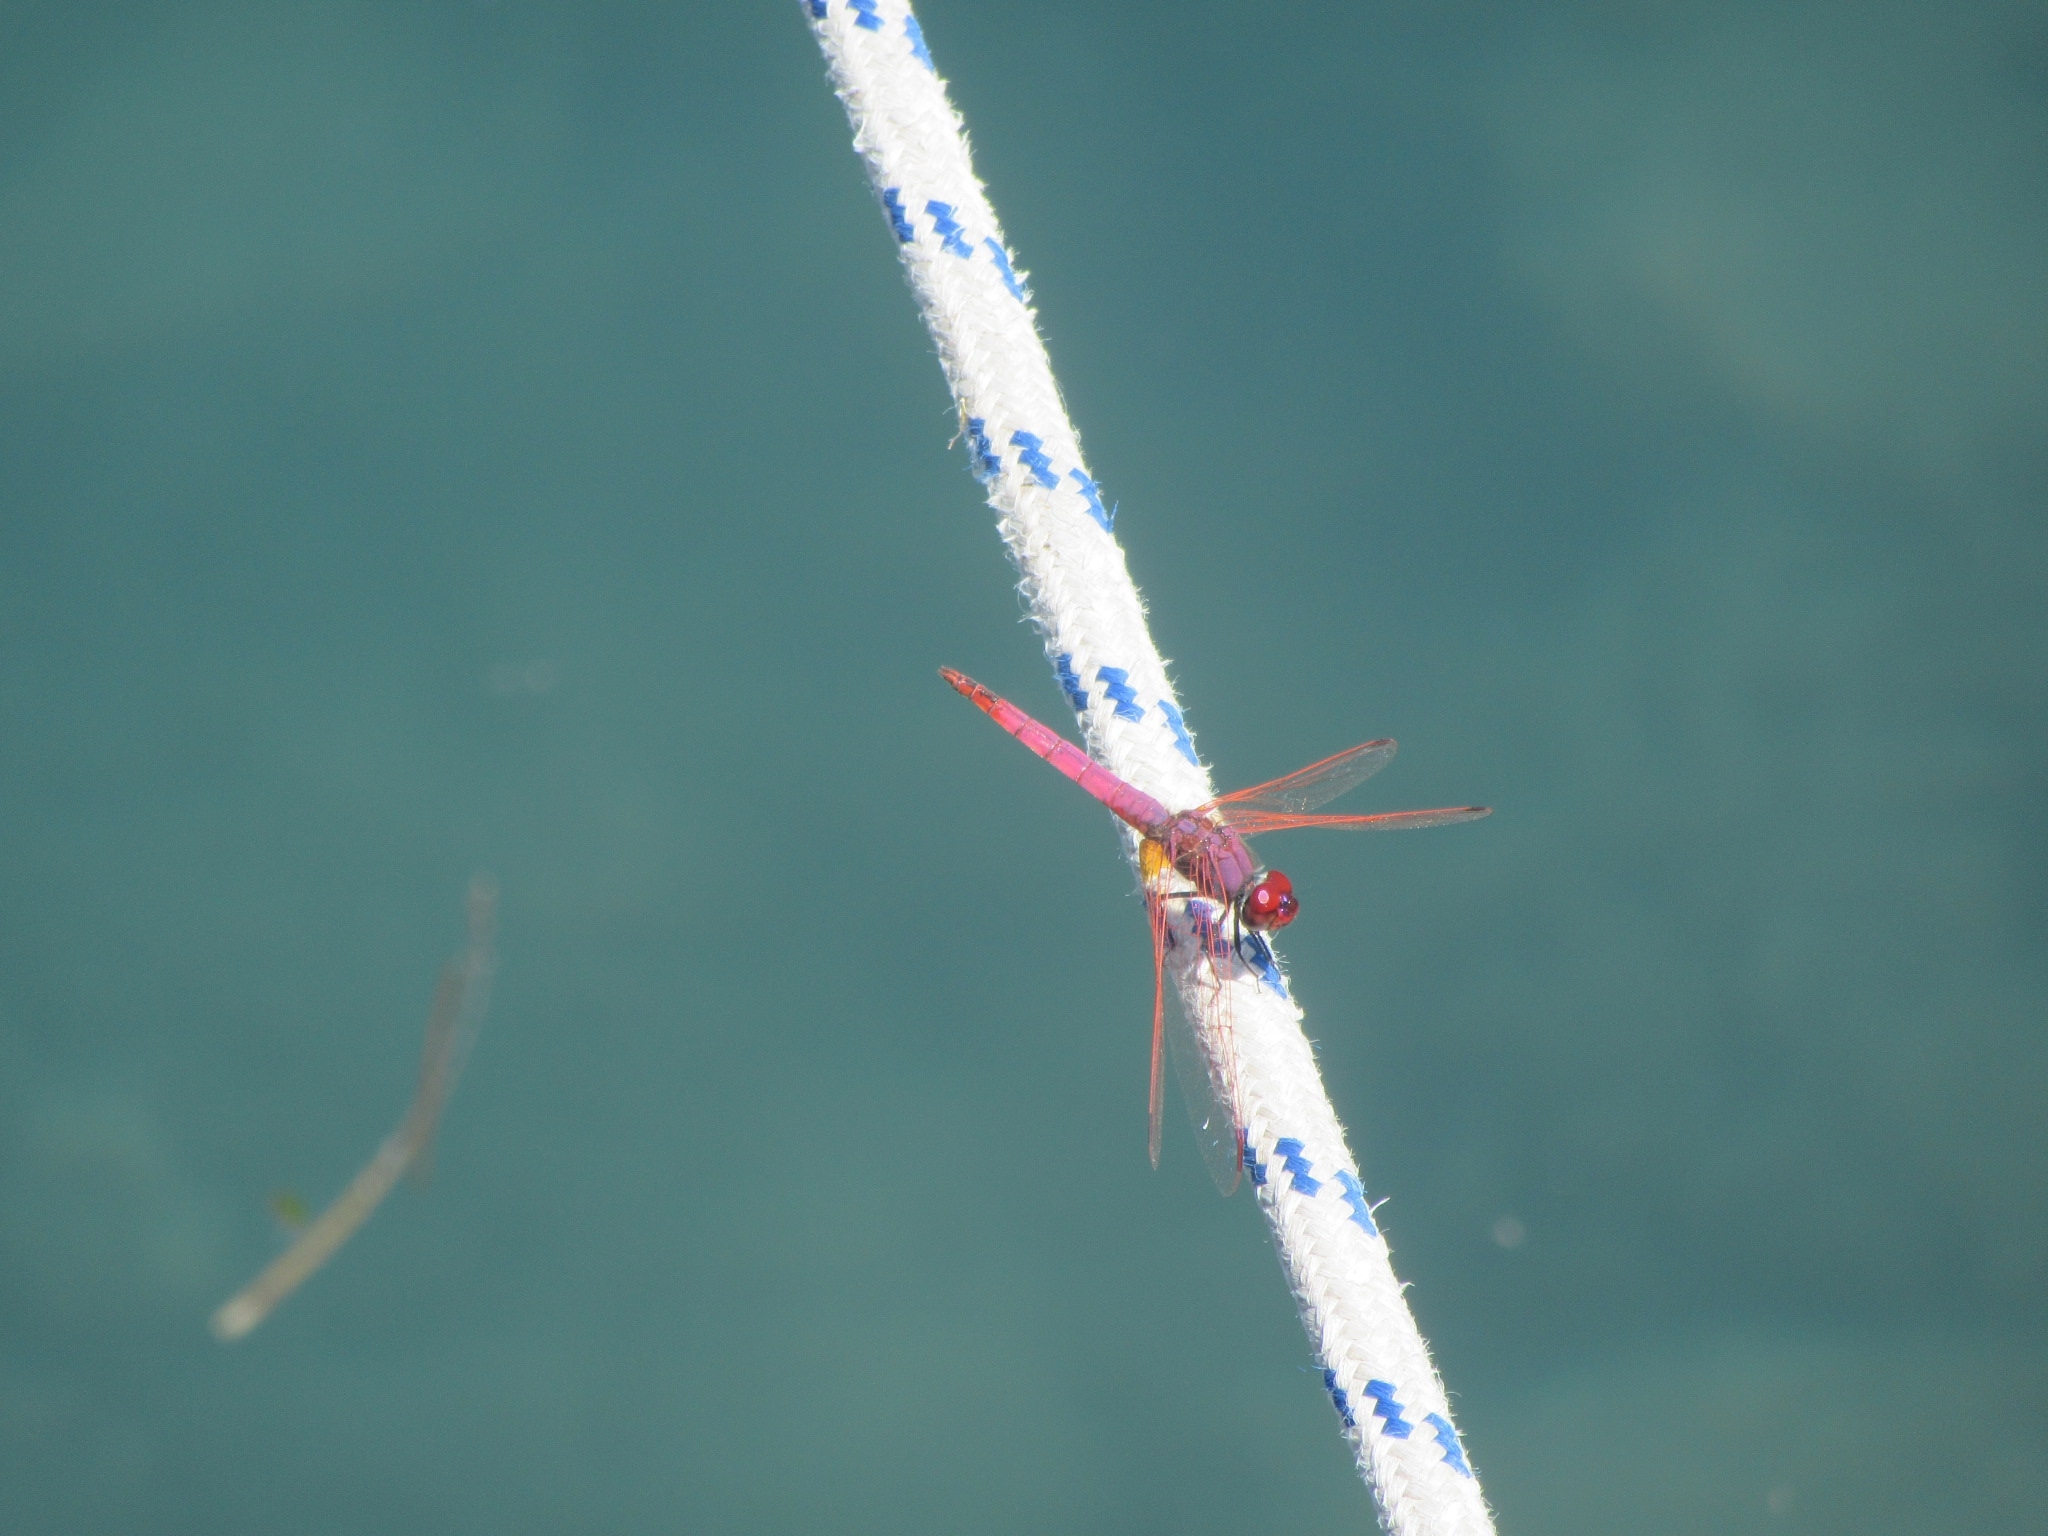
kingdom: Animalia
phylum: Arthropoda
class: Insecta
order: Odonata
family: Libellulidae
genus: Trithemis
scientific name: Trithemis annulata
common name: Violet dropwing
